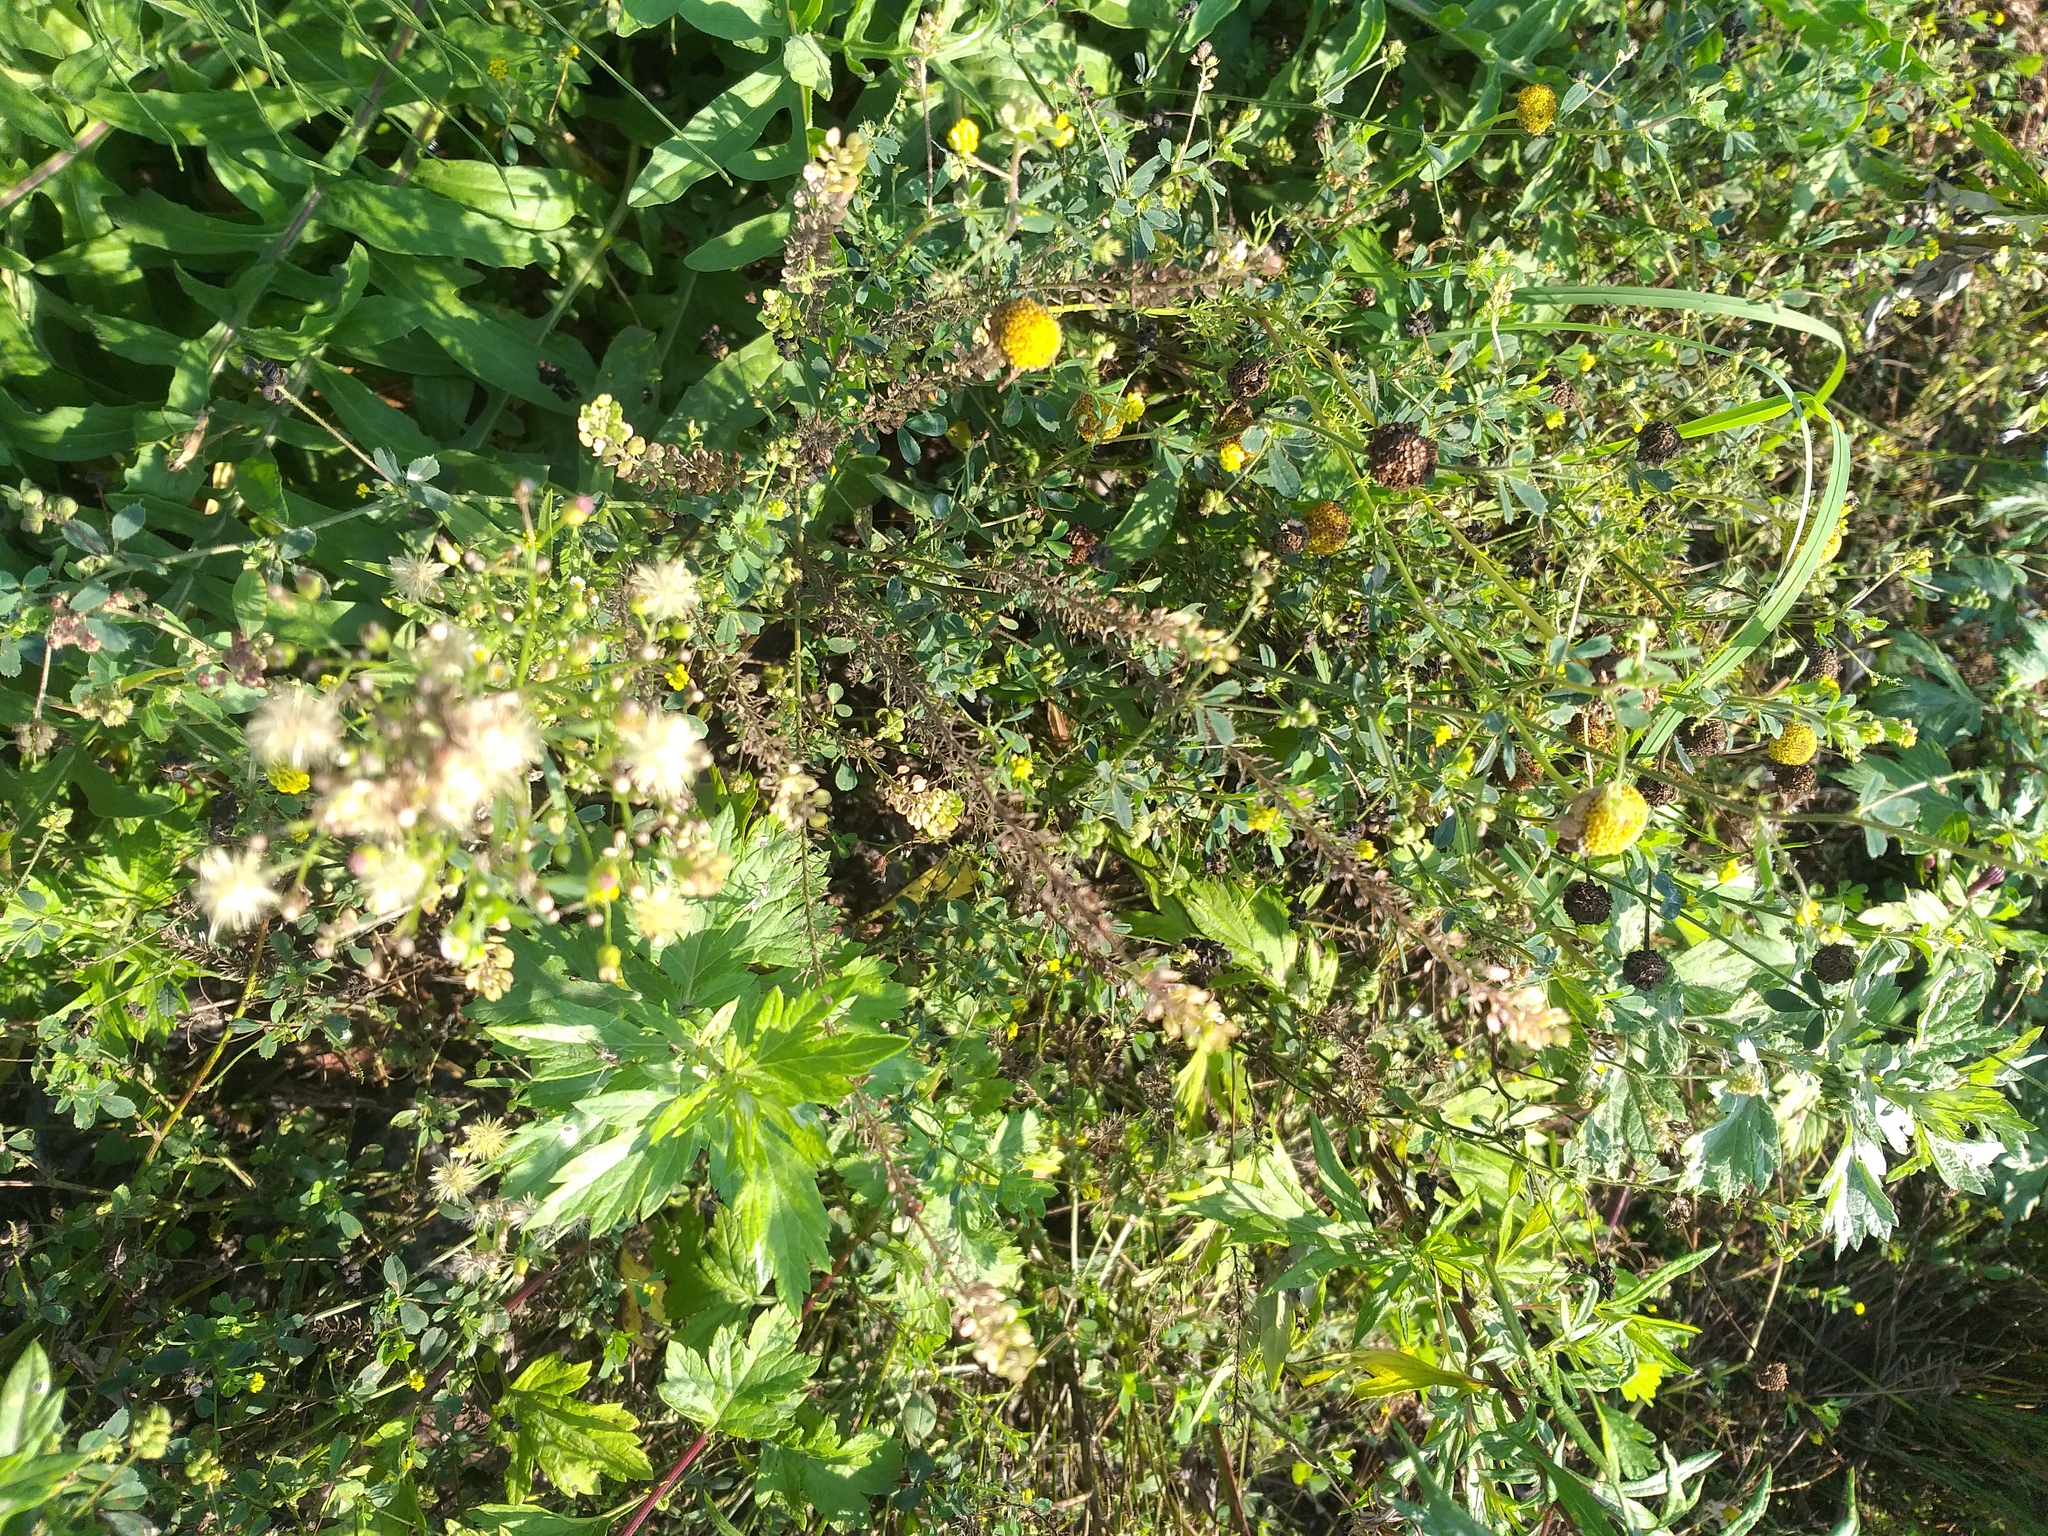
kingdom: Plantae
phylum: Tracheophyta
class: Magnoliopsida
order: Brassicales
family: Brassicaceae
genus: Lepidium
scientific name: Lepidium densiflorum
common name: Miner's pepperwort
